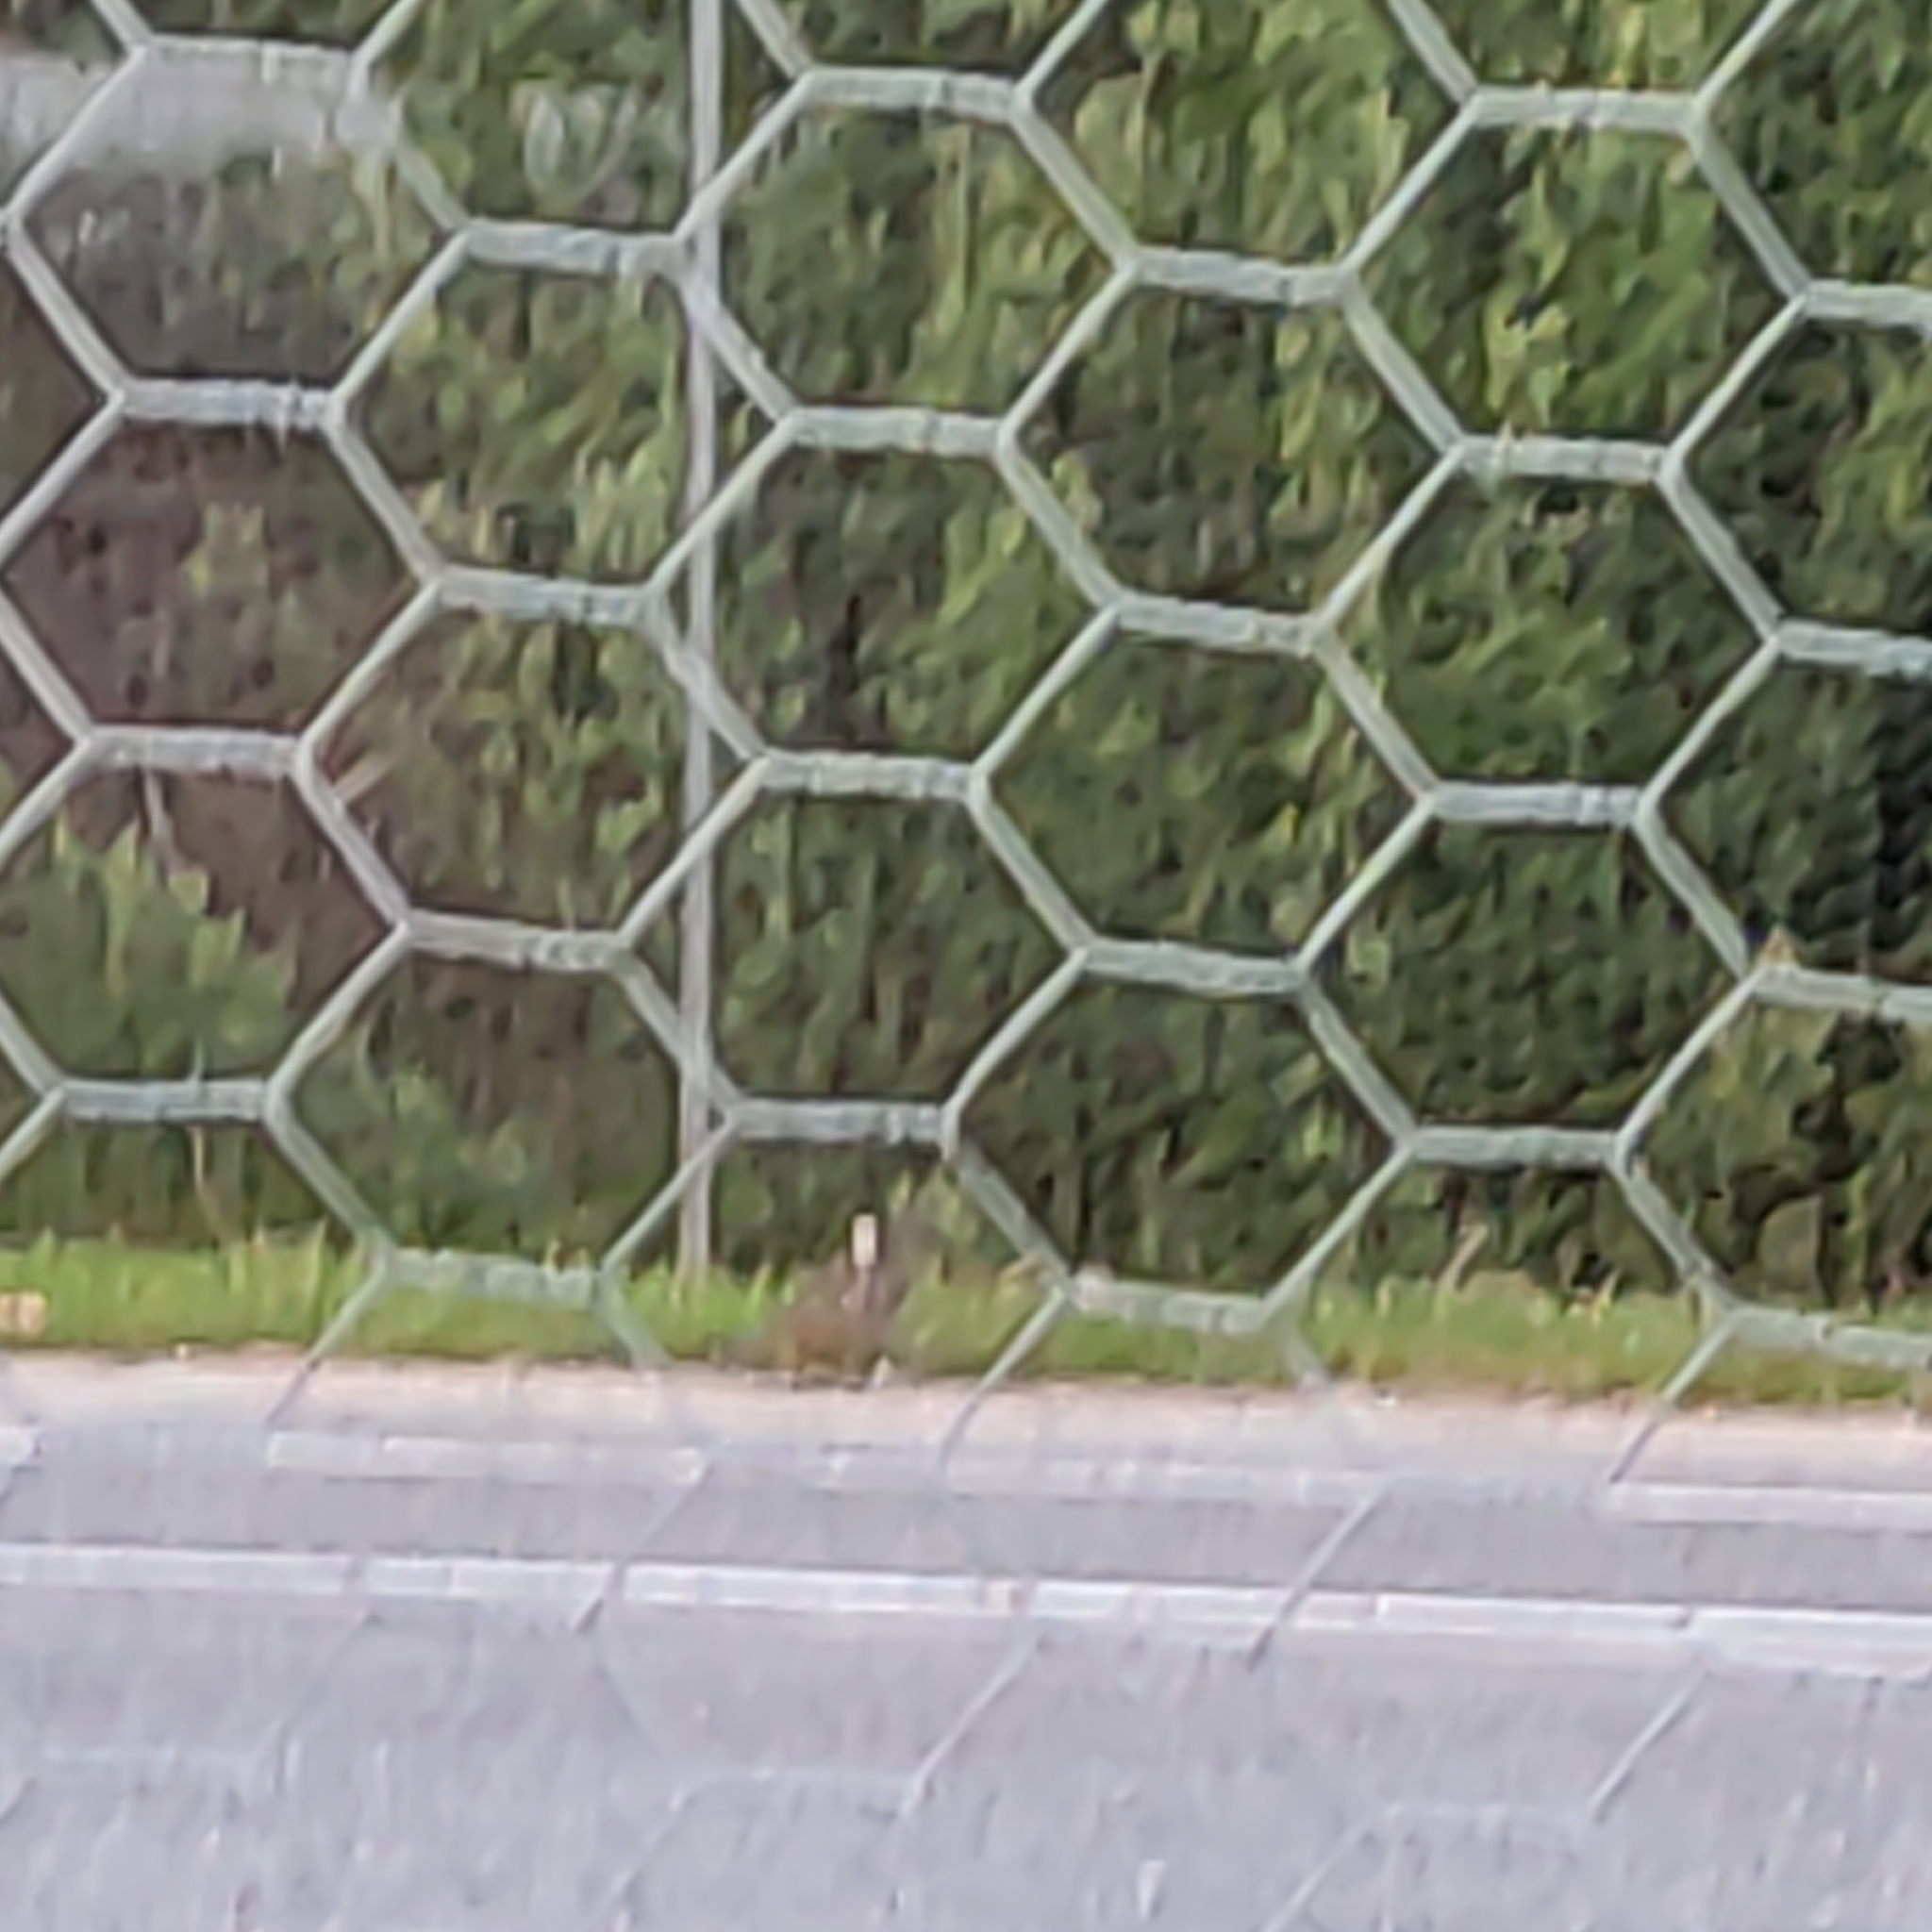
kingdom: Animalia
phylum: Chordata
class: Aves
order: Galliformes
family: Odontophoridae
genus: Callipepla
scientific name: Callipepla californica
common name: California quail
